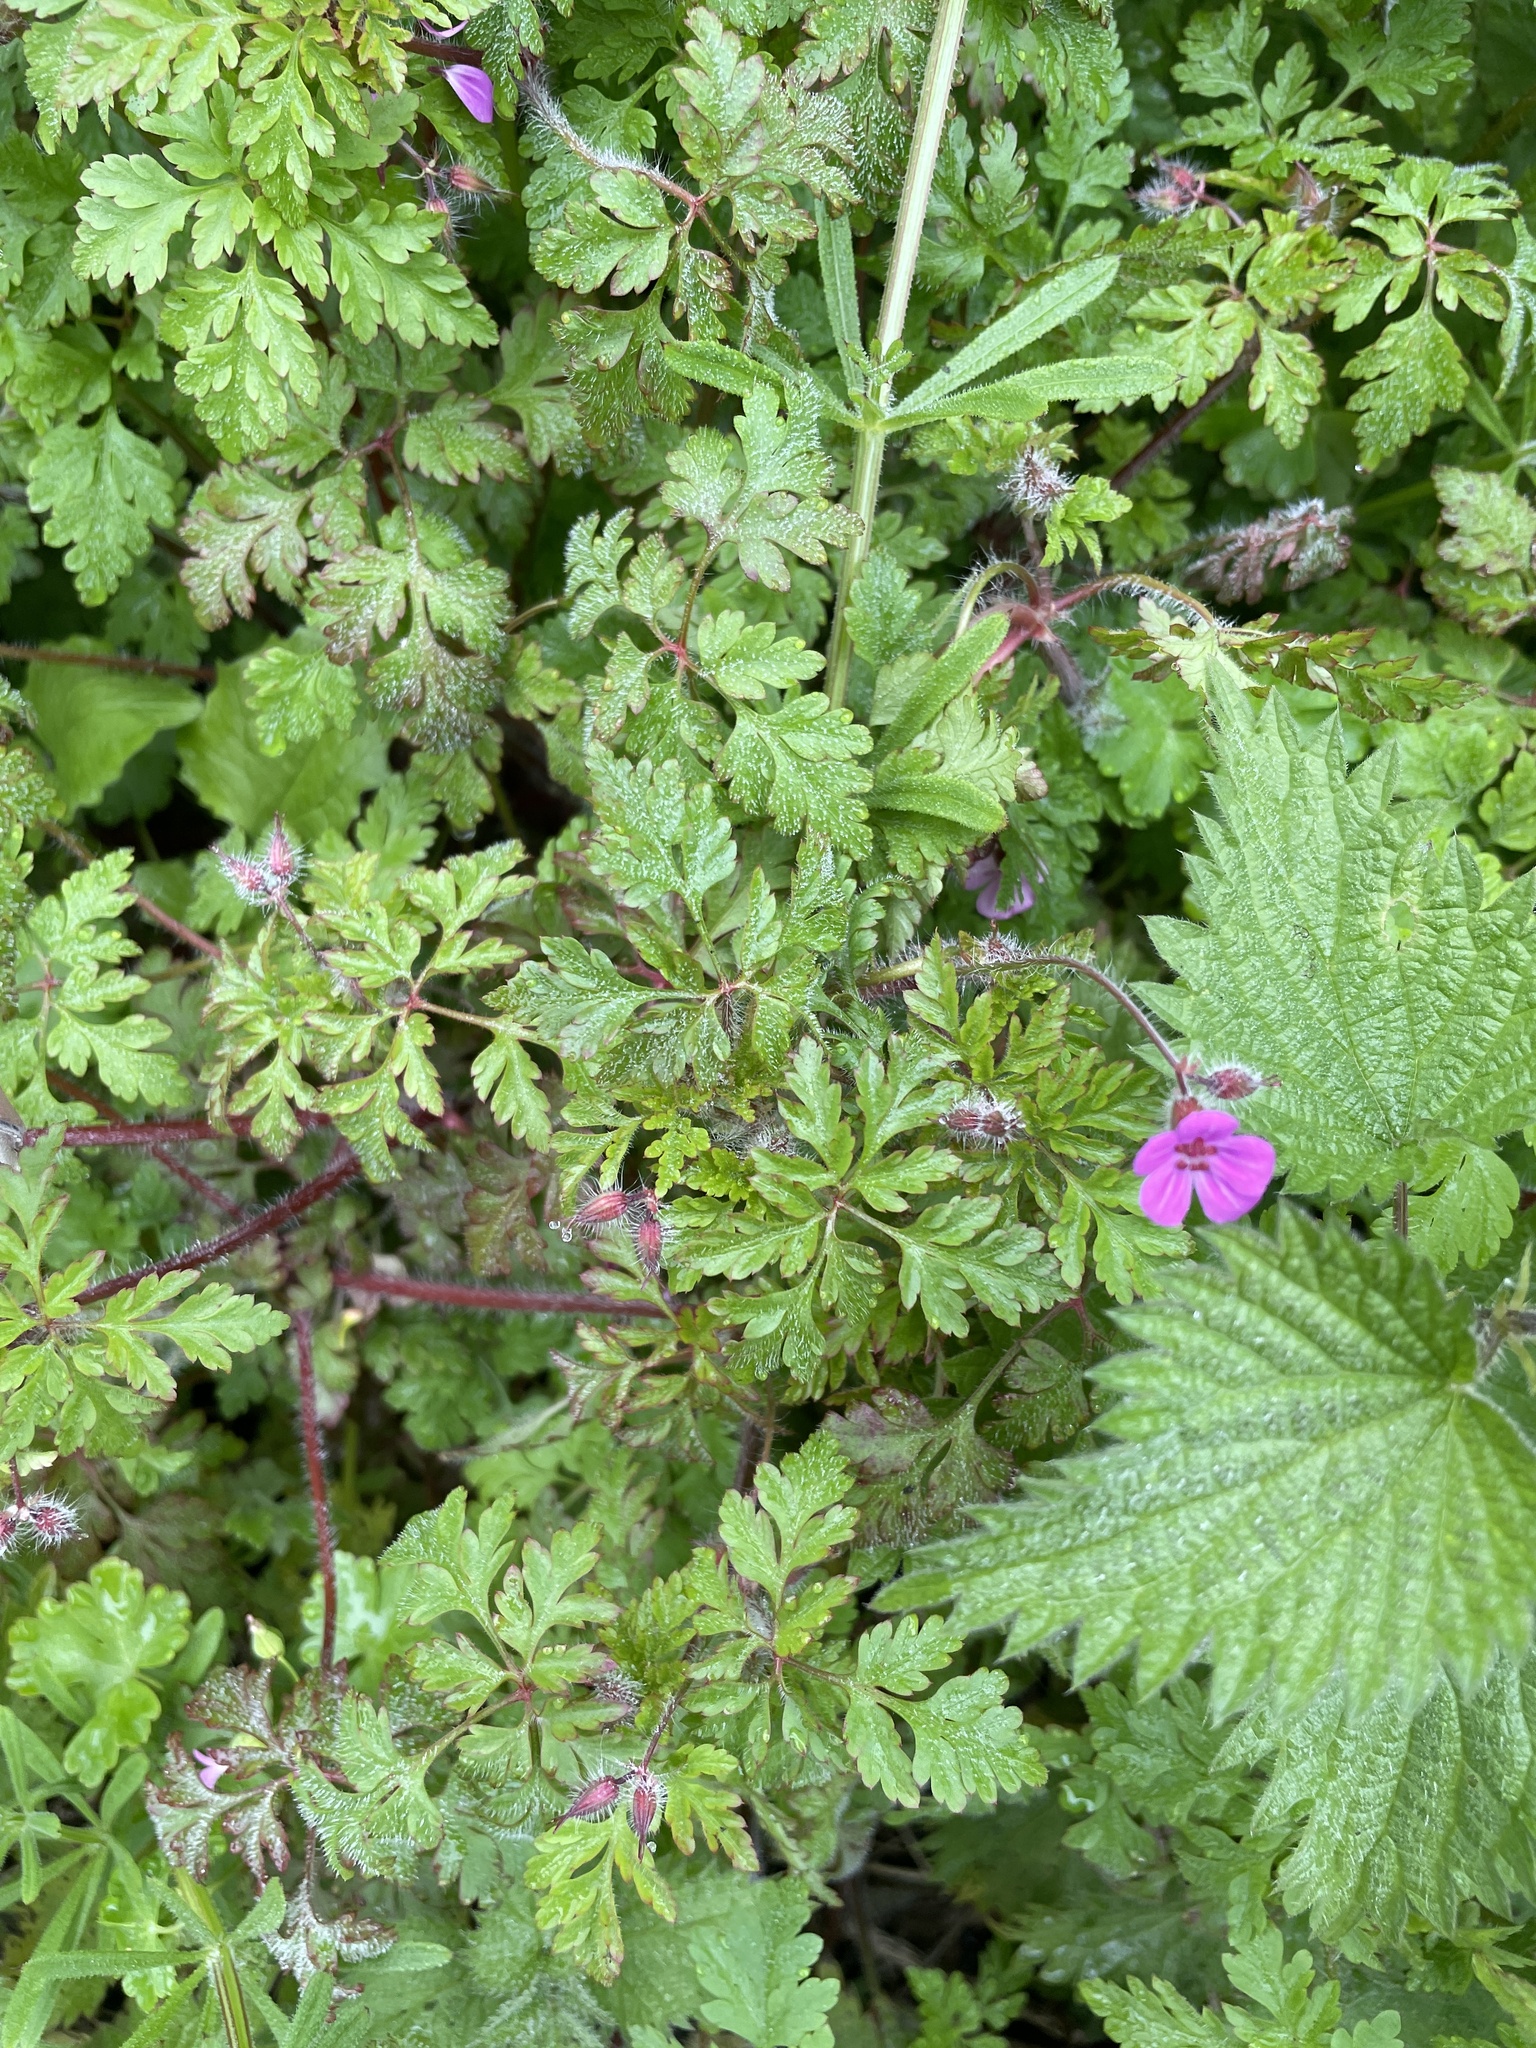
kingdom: Plantae
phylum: Tracheophyta
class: Magnoliopsida
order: Geraniales
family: Geraniaceae
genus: Geranium
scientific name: Geranium robertianum
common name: Herb-robert
